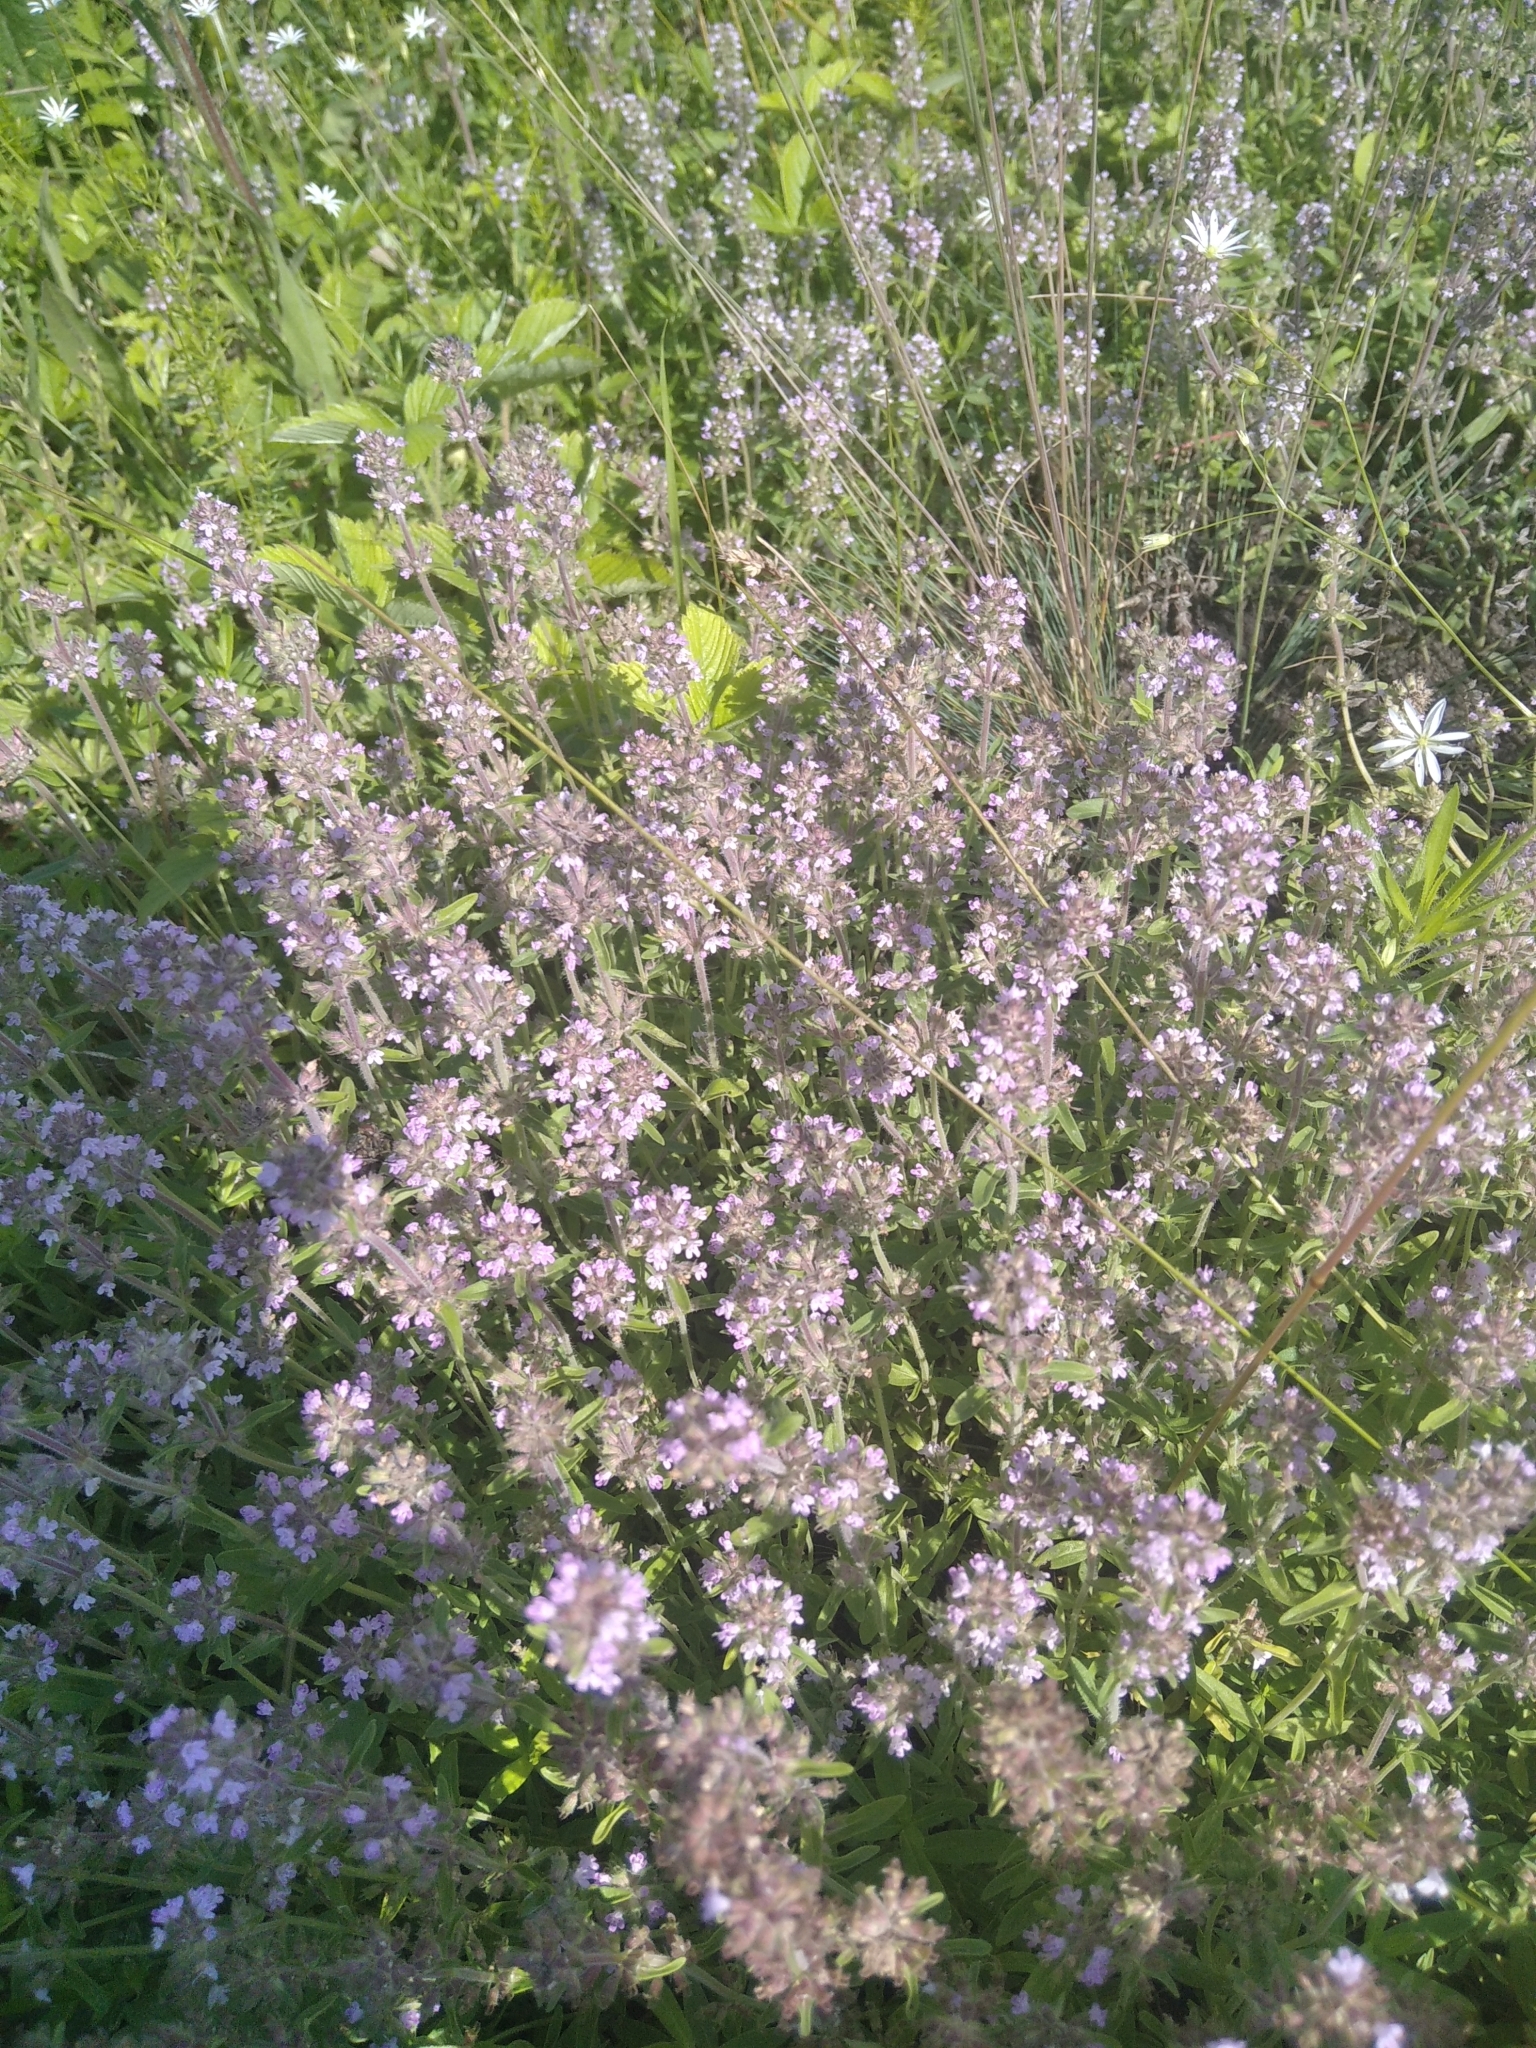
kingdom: Plantae
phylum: Tracheophyta
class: Magnoliopsida
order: Lamiales
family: Lamiaceae
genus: Thymus
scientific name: Thymus pannonicus
